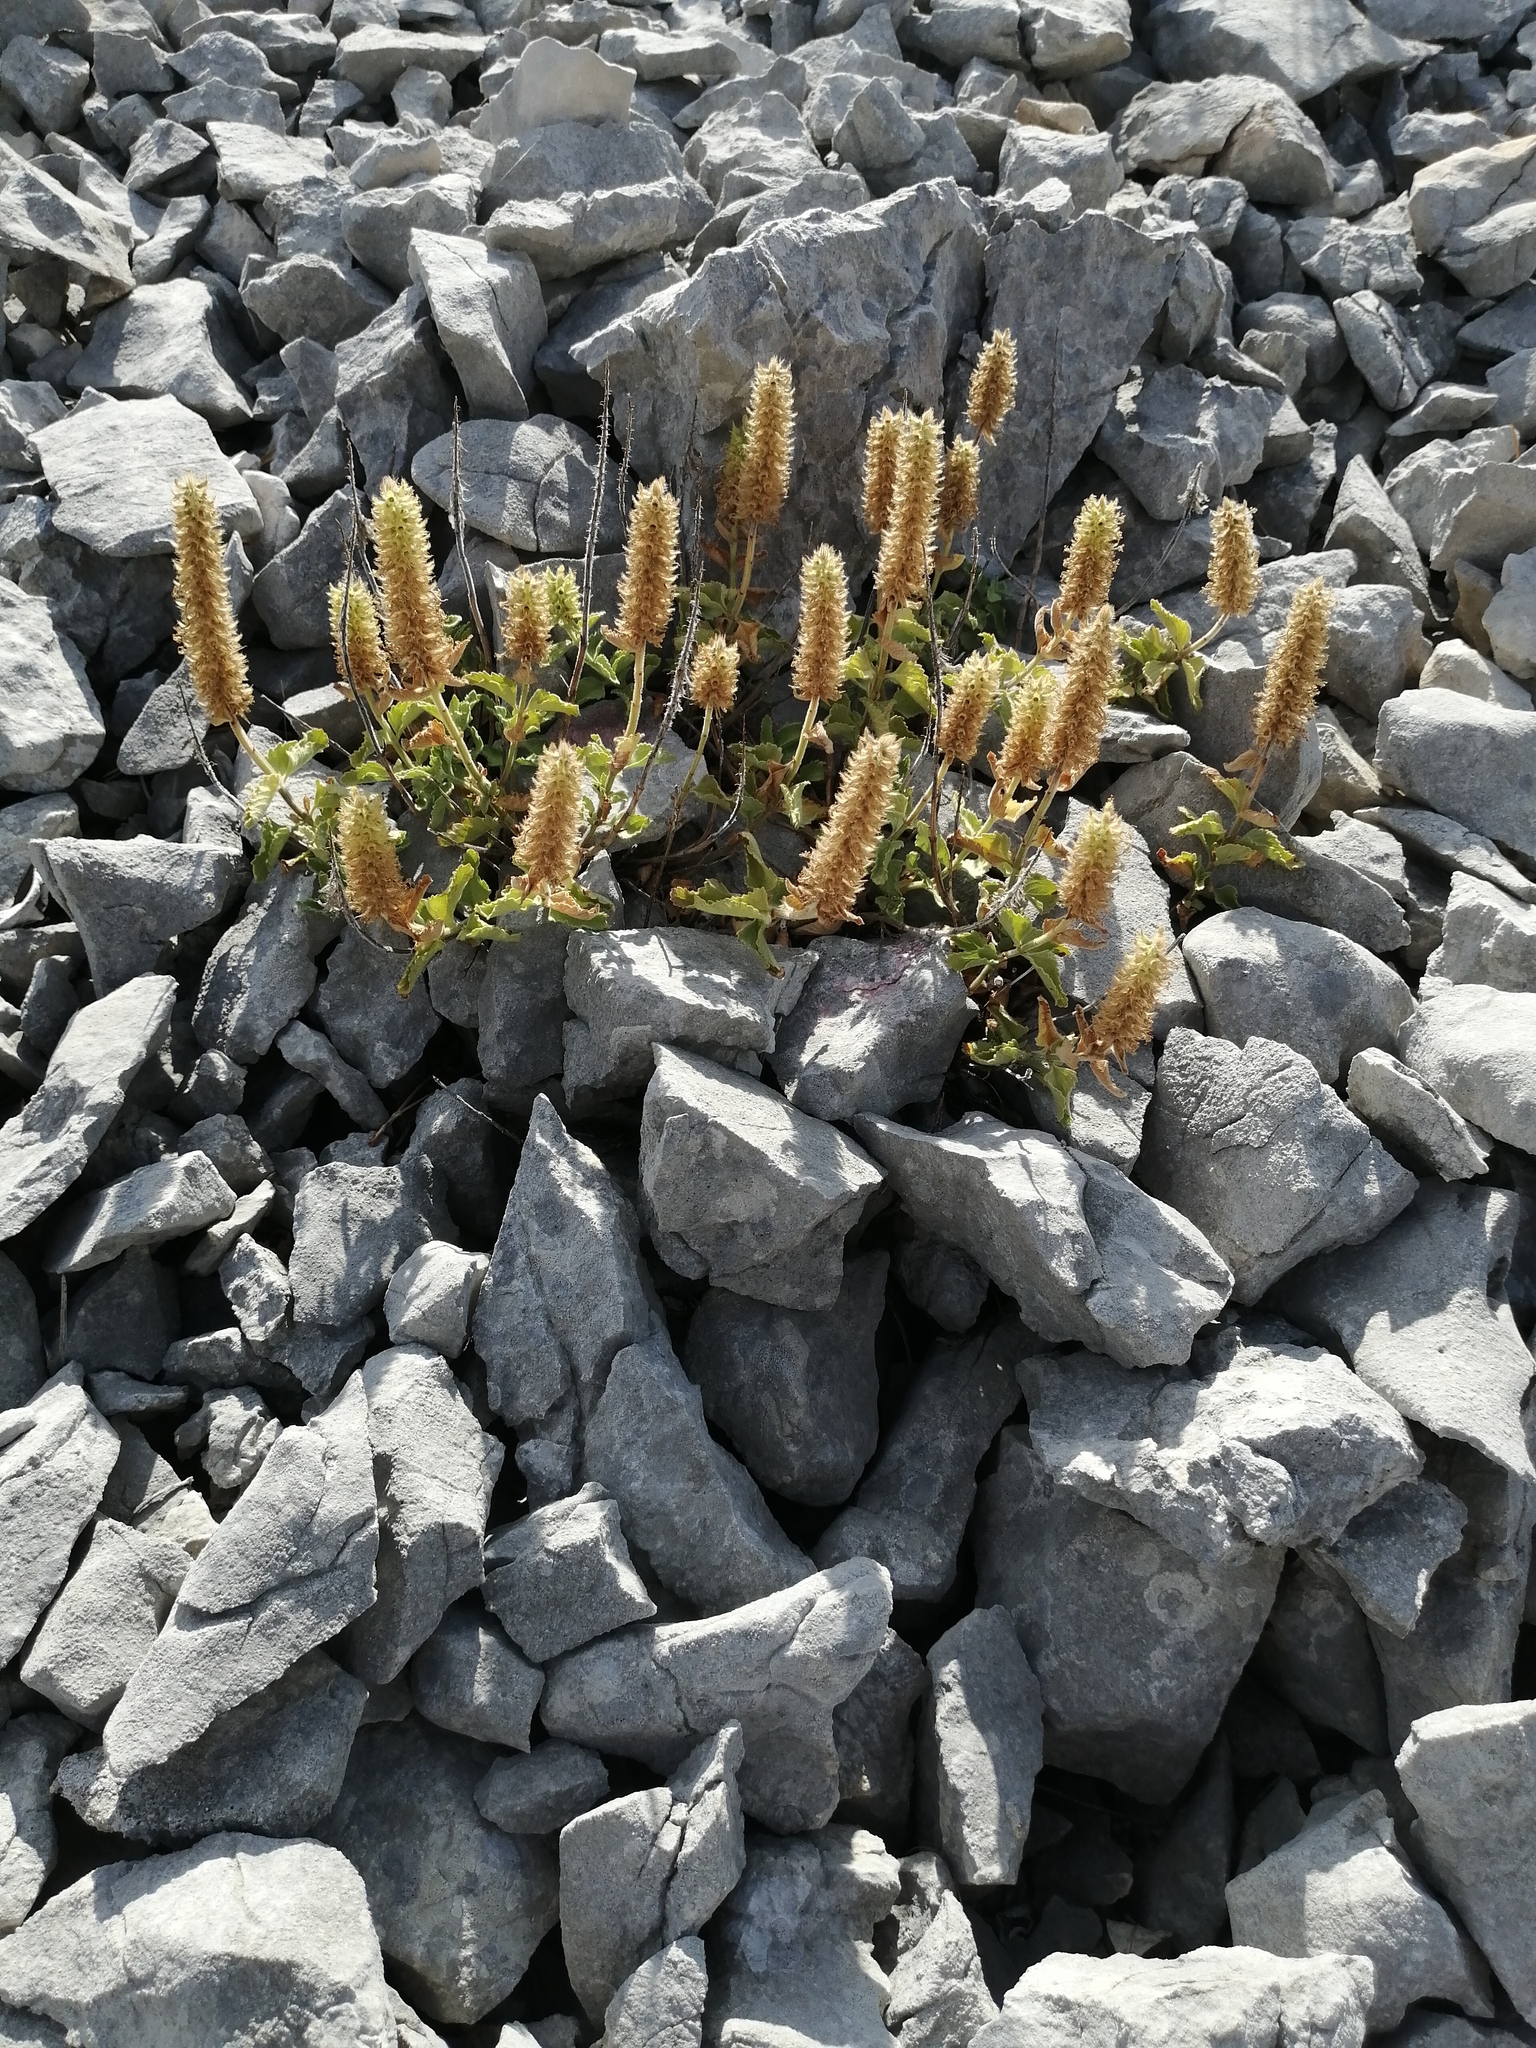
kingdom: Plantae
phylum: Tracheophyta
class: Magnoliopsida
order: Lamiales
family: Lamiaceae
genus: Teucrium
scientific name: Teucrium arduini
